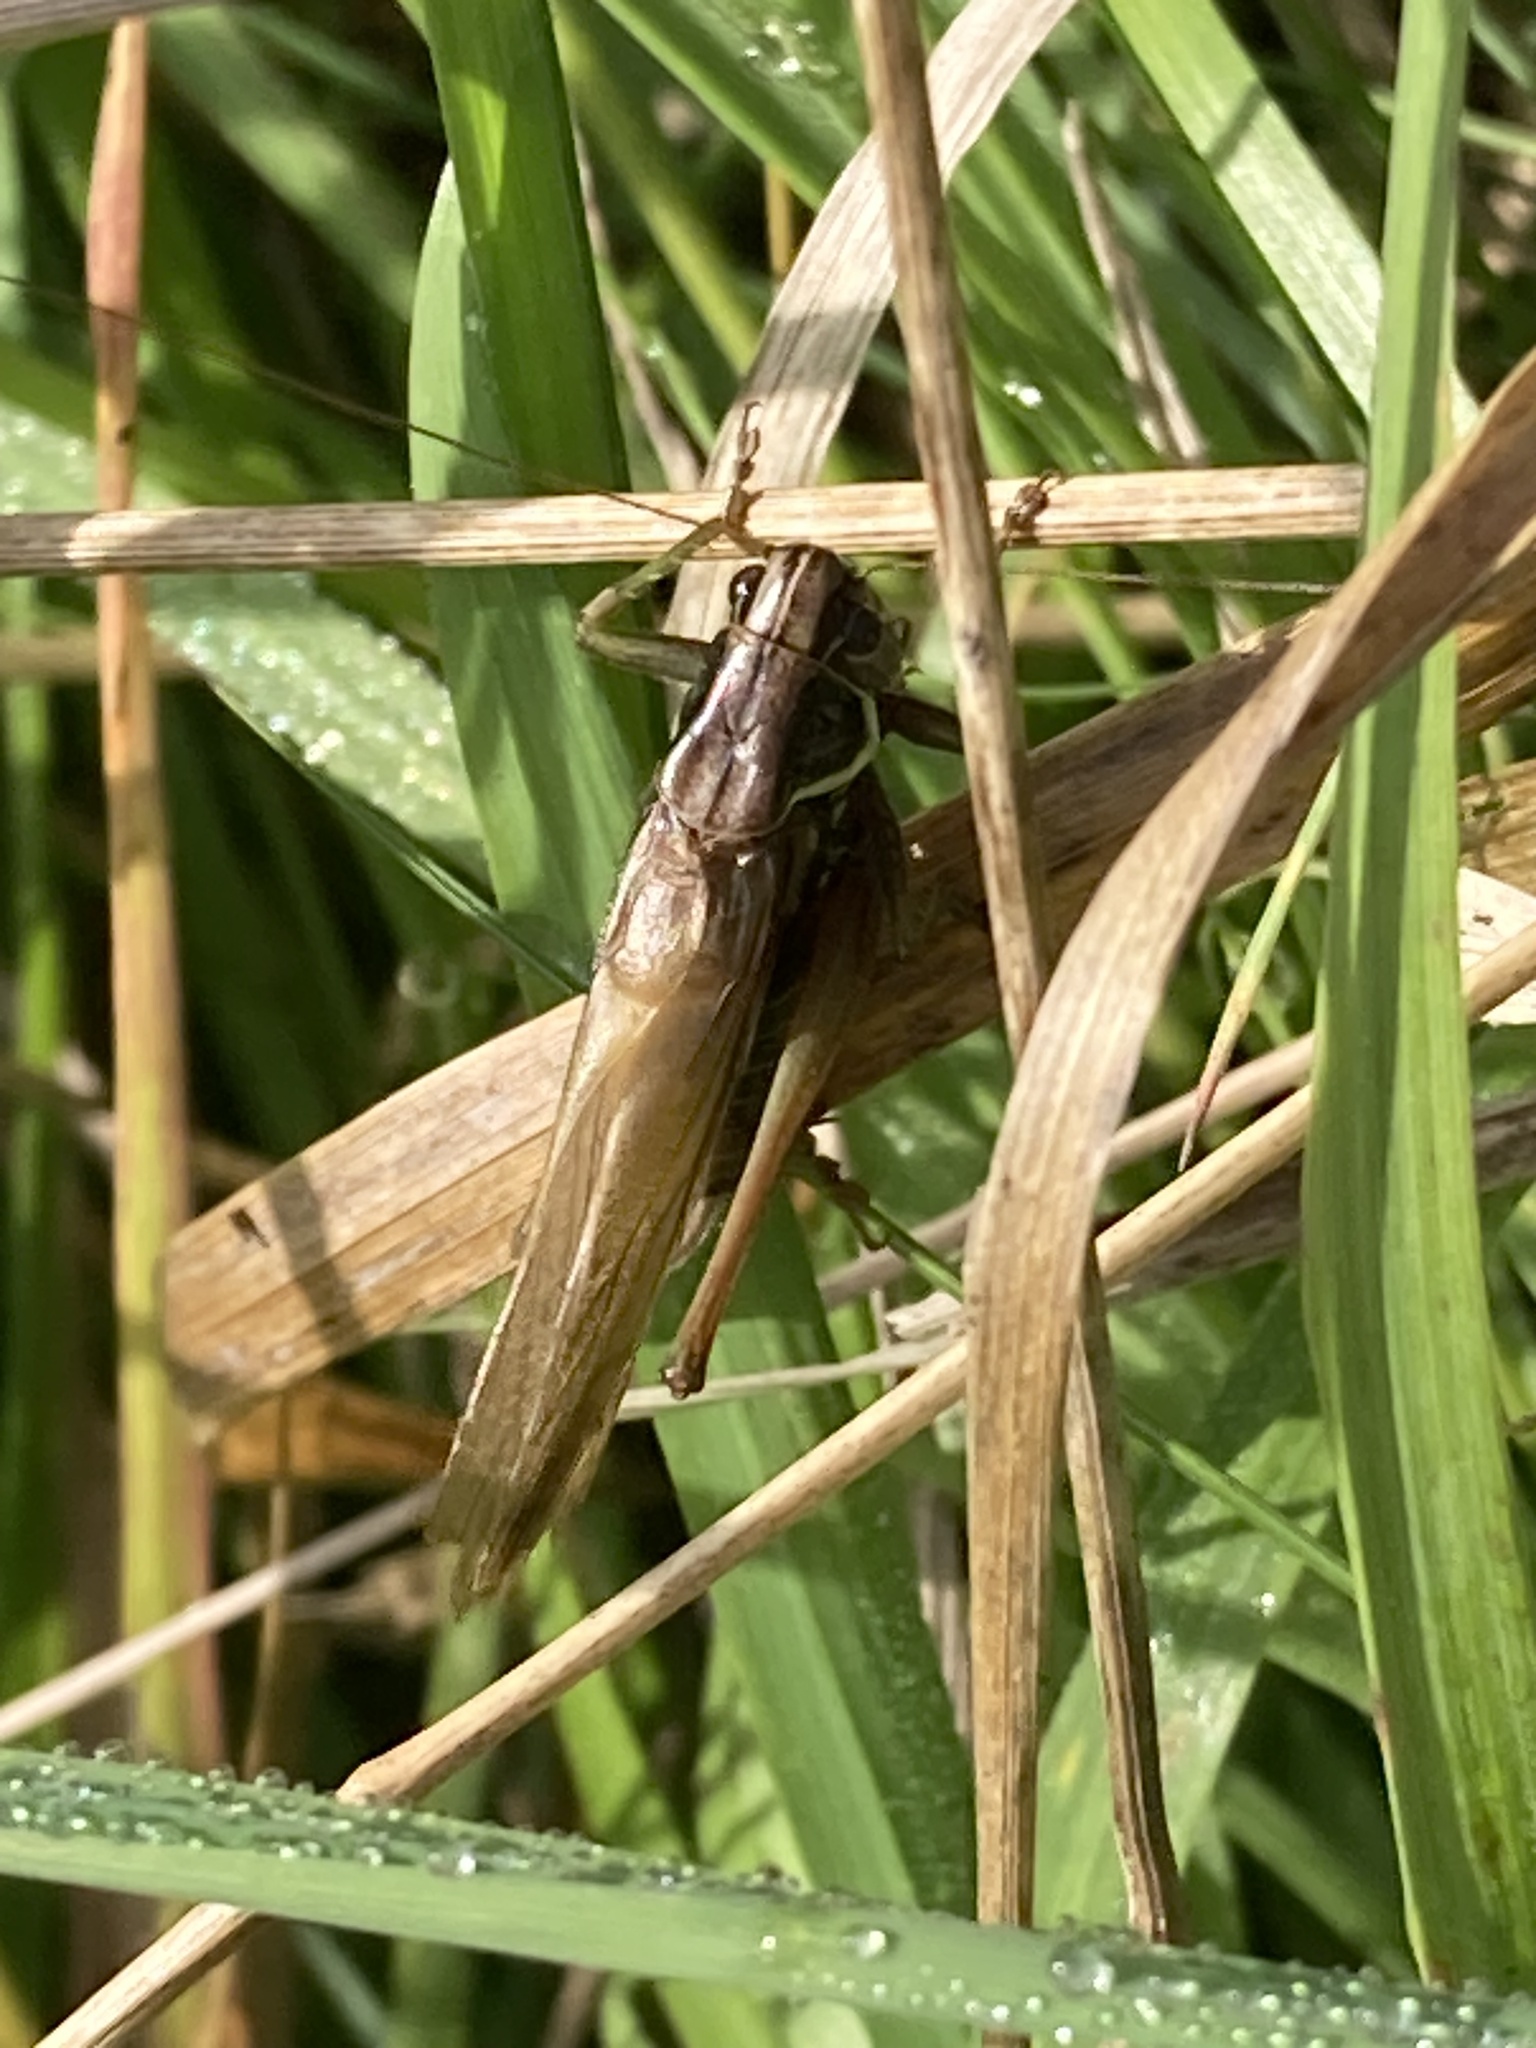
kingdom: Animalia
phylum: Arthropoda
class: Insecta
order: Orthoptera
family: Tettigoniidae
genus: Roeseliana
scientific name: Roeseliana roeselii
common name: Roesel's bush cricket
